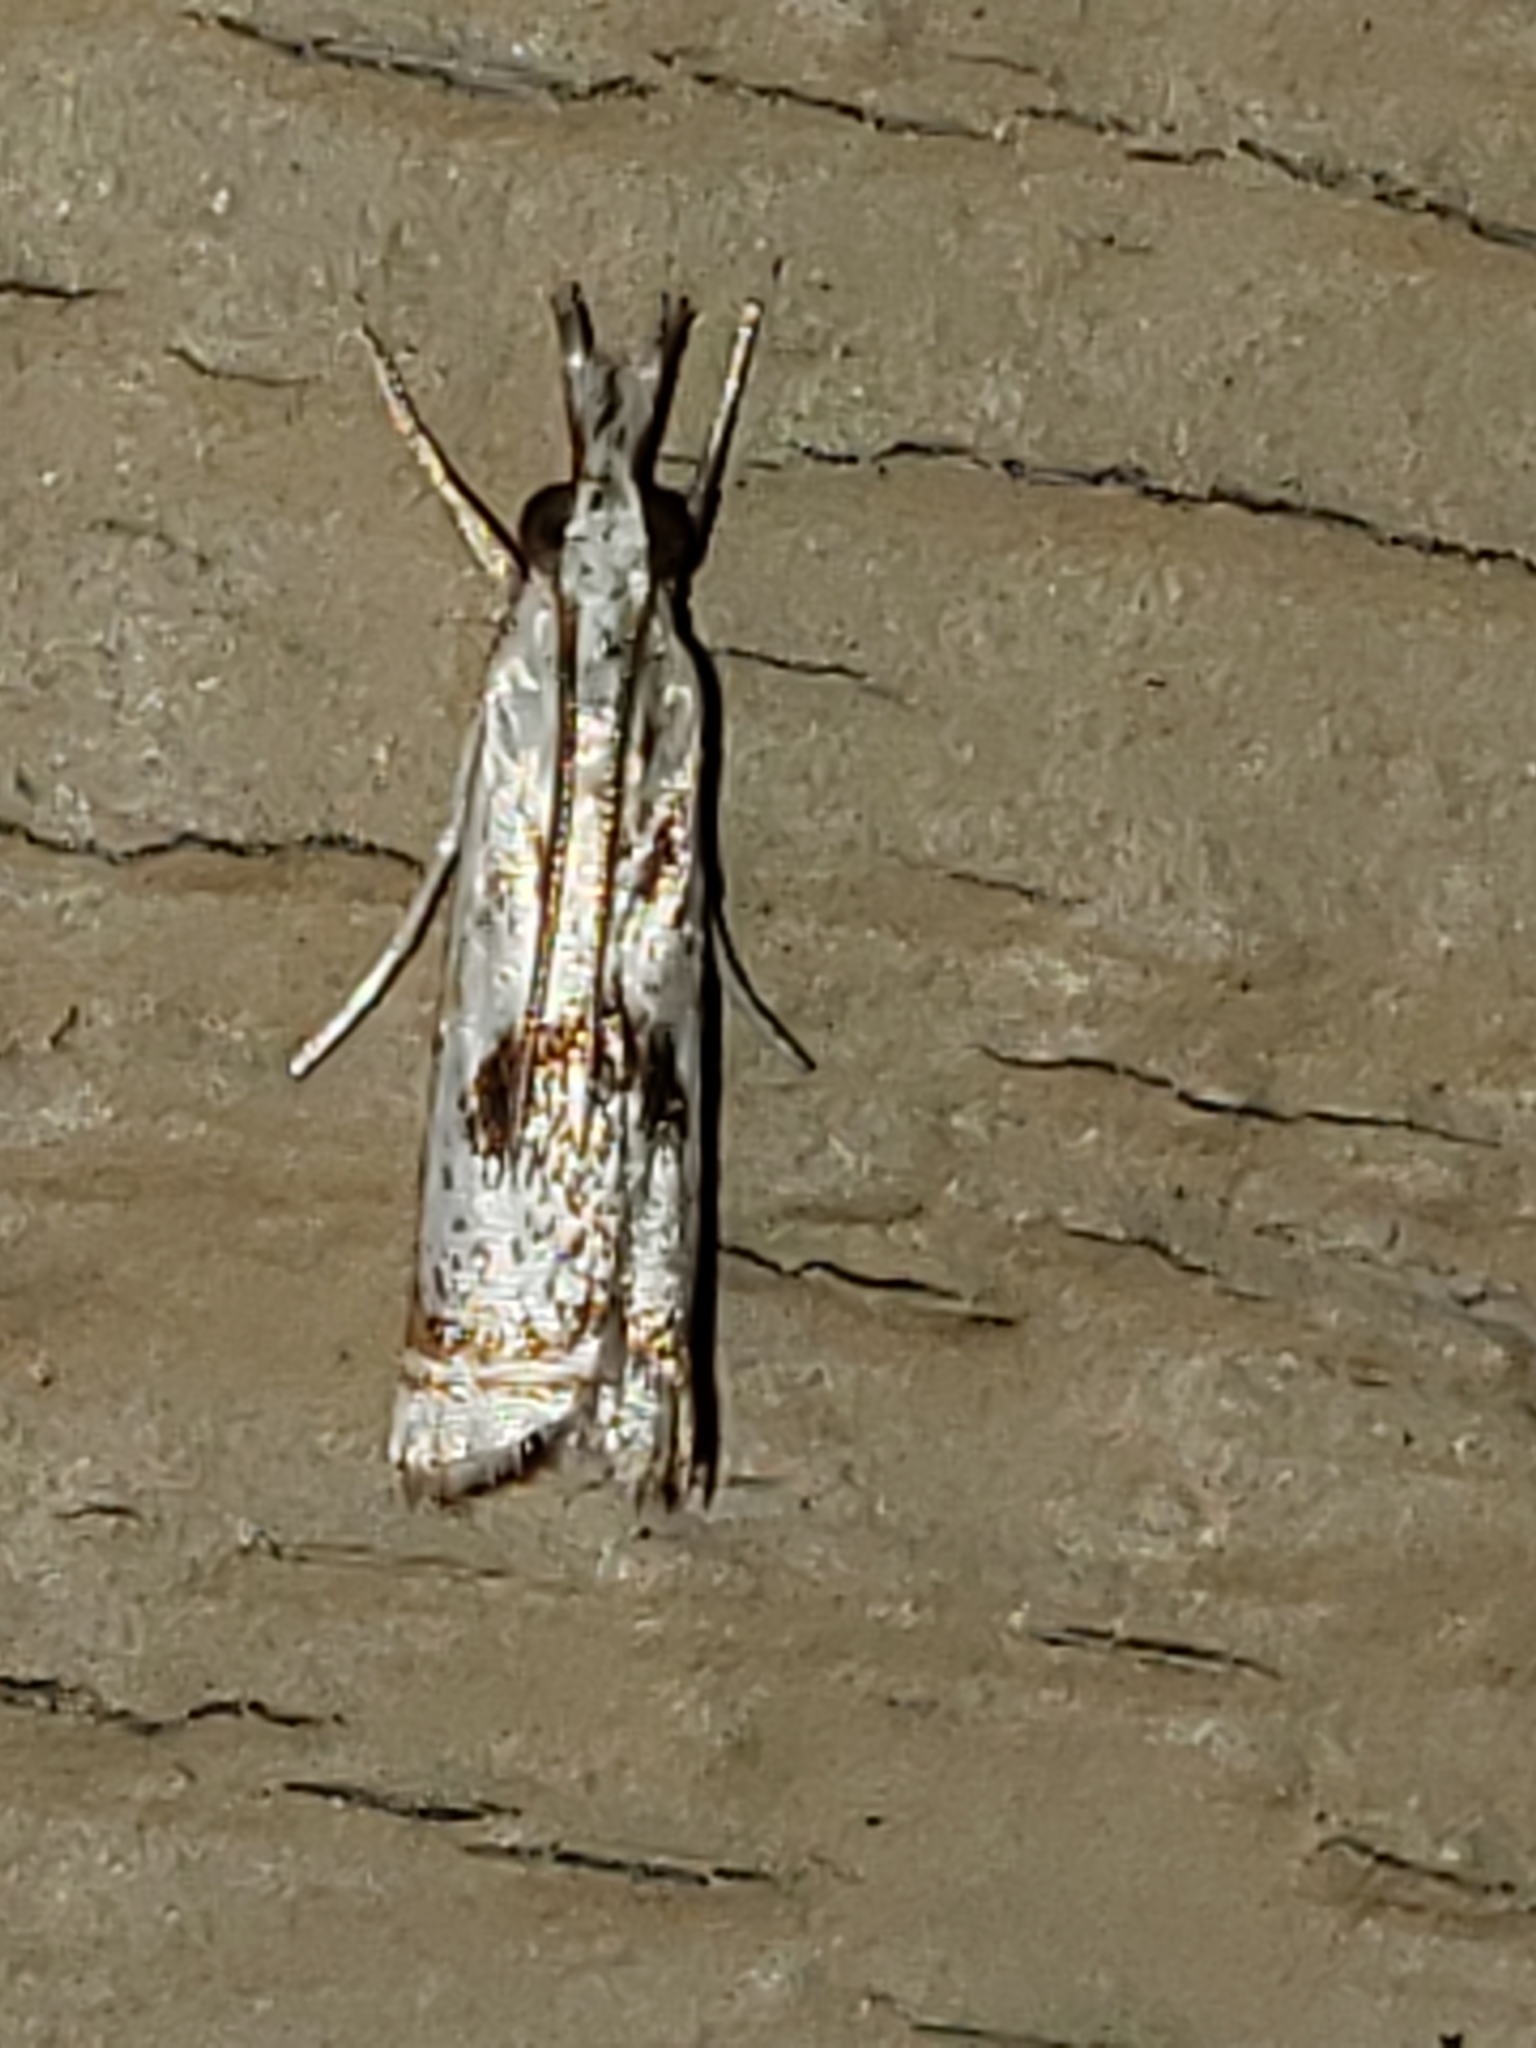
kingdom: Animalia
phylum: Arthropoda
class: Insecta
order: Lepidoptera
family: Crambidae
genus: Microcrambus
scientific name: Microcrambus elegans
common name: Elegant grass-veneer
